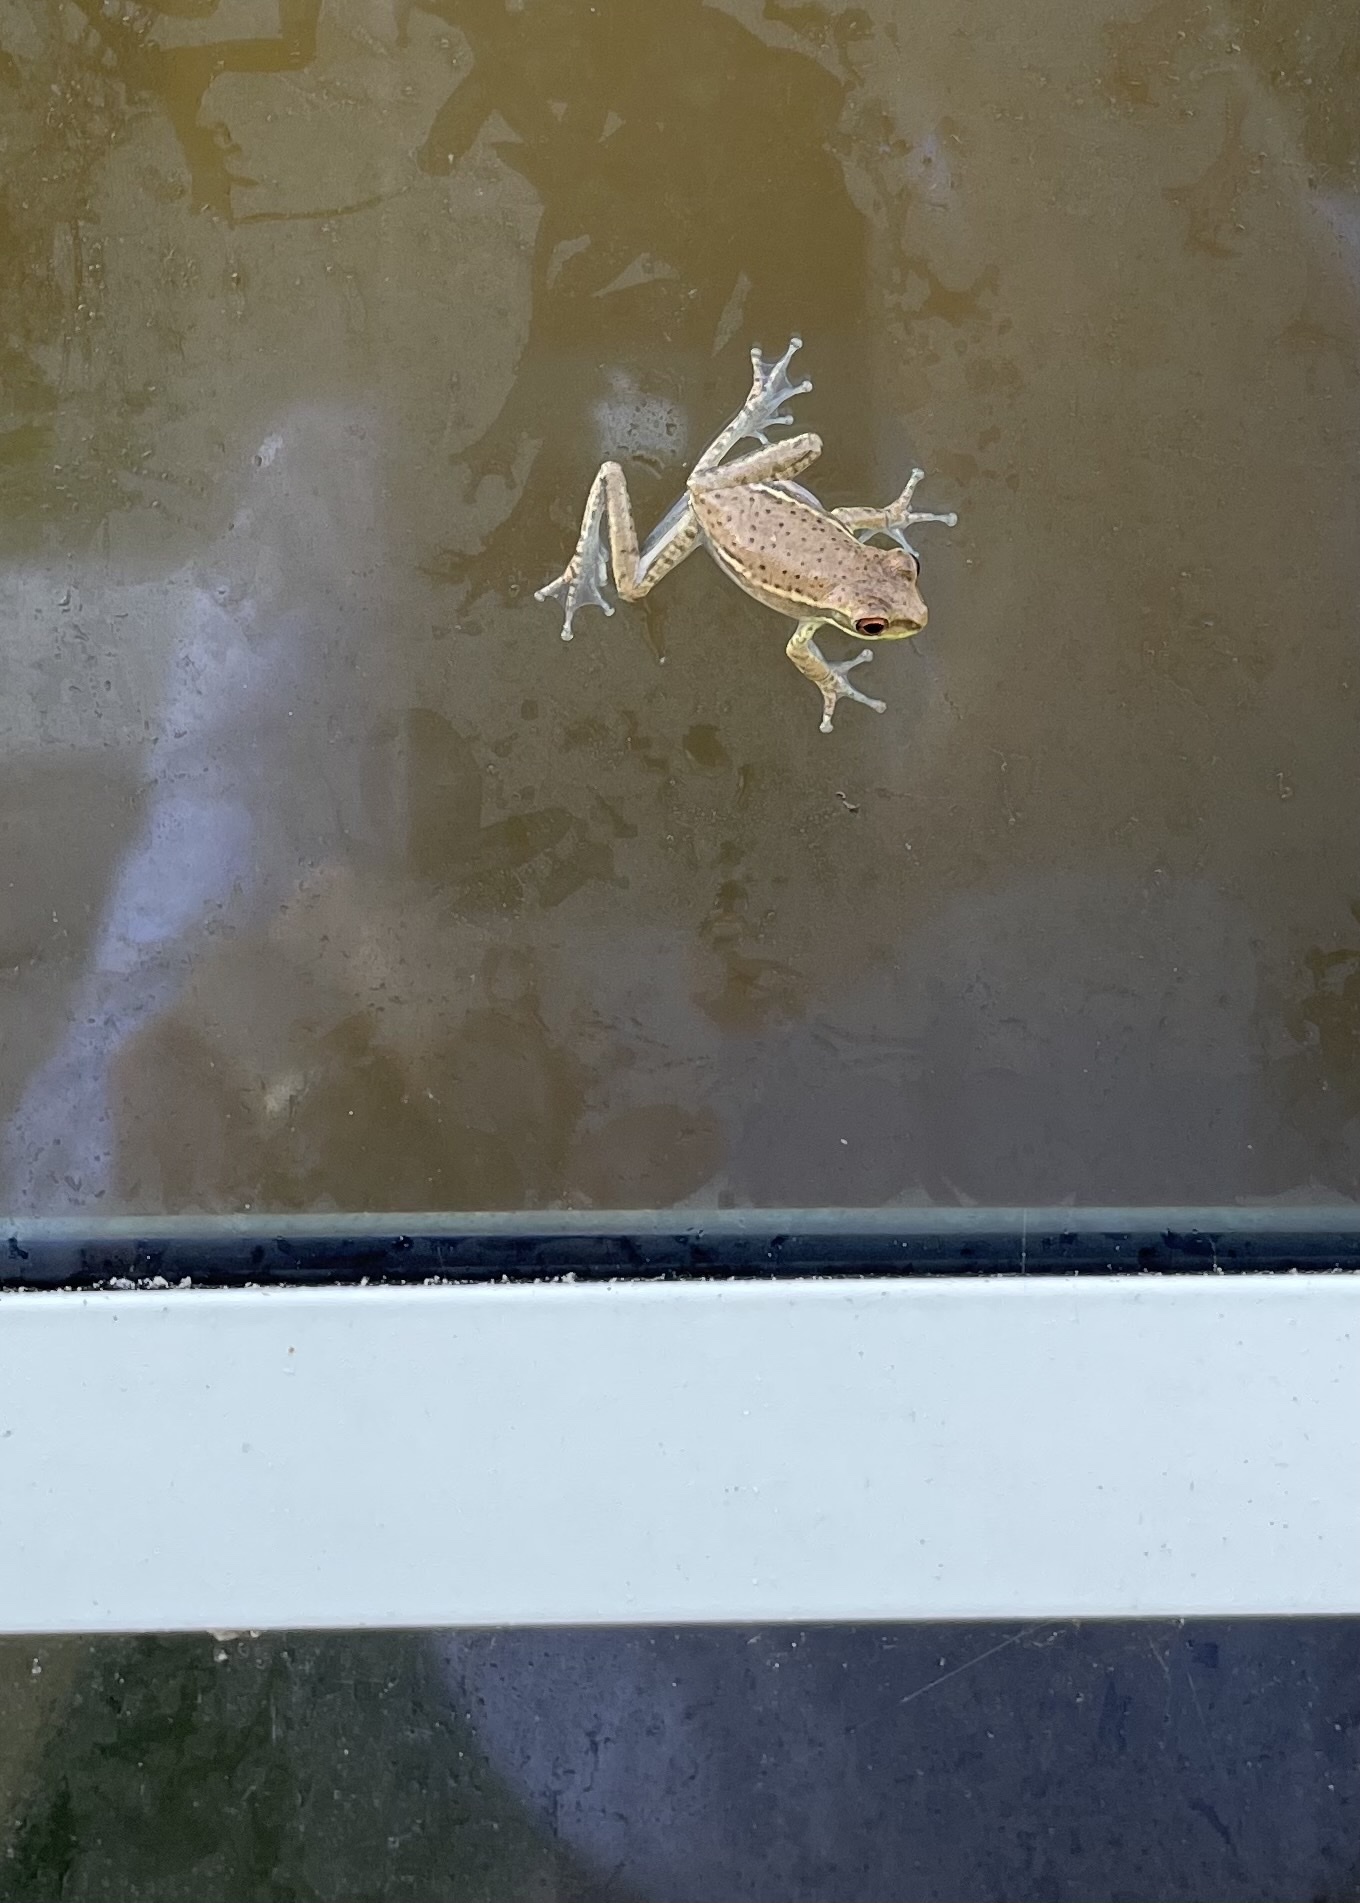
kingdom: Animalia
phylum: Chordata
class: Amphibia
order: Anura
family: Hylidae
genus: Osteopilus
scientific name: Osteopilus septentrionalis
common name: Cuban treefrog
